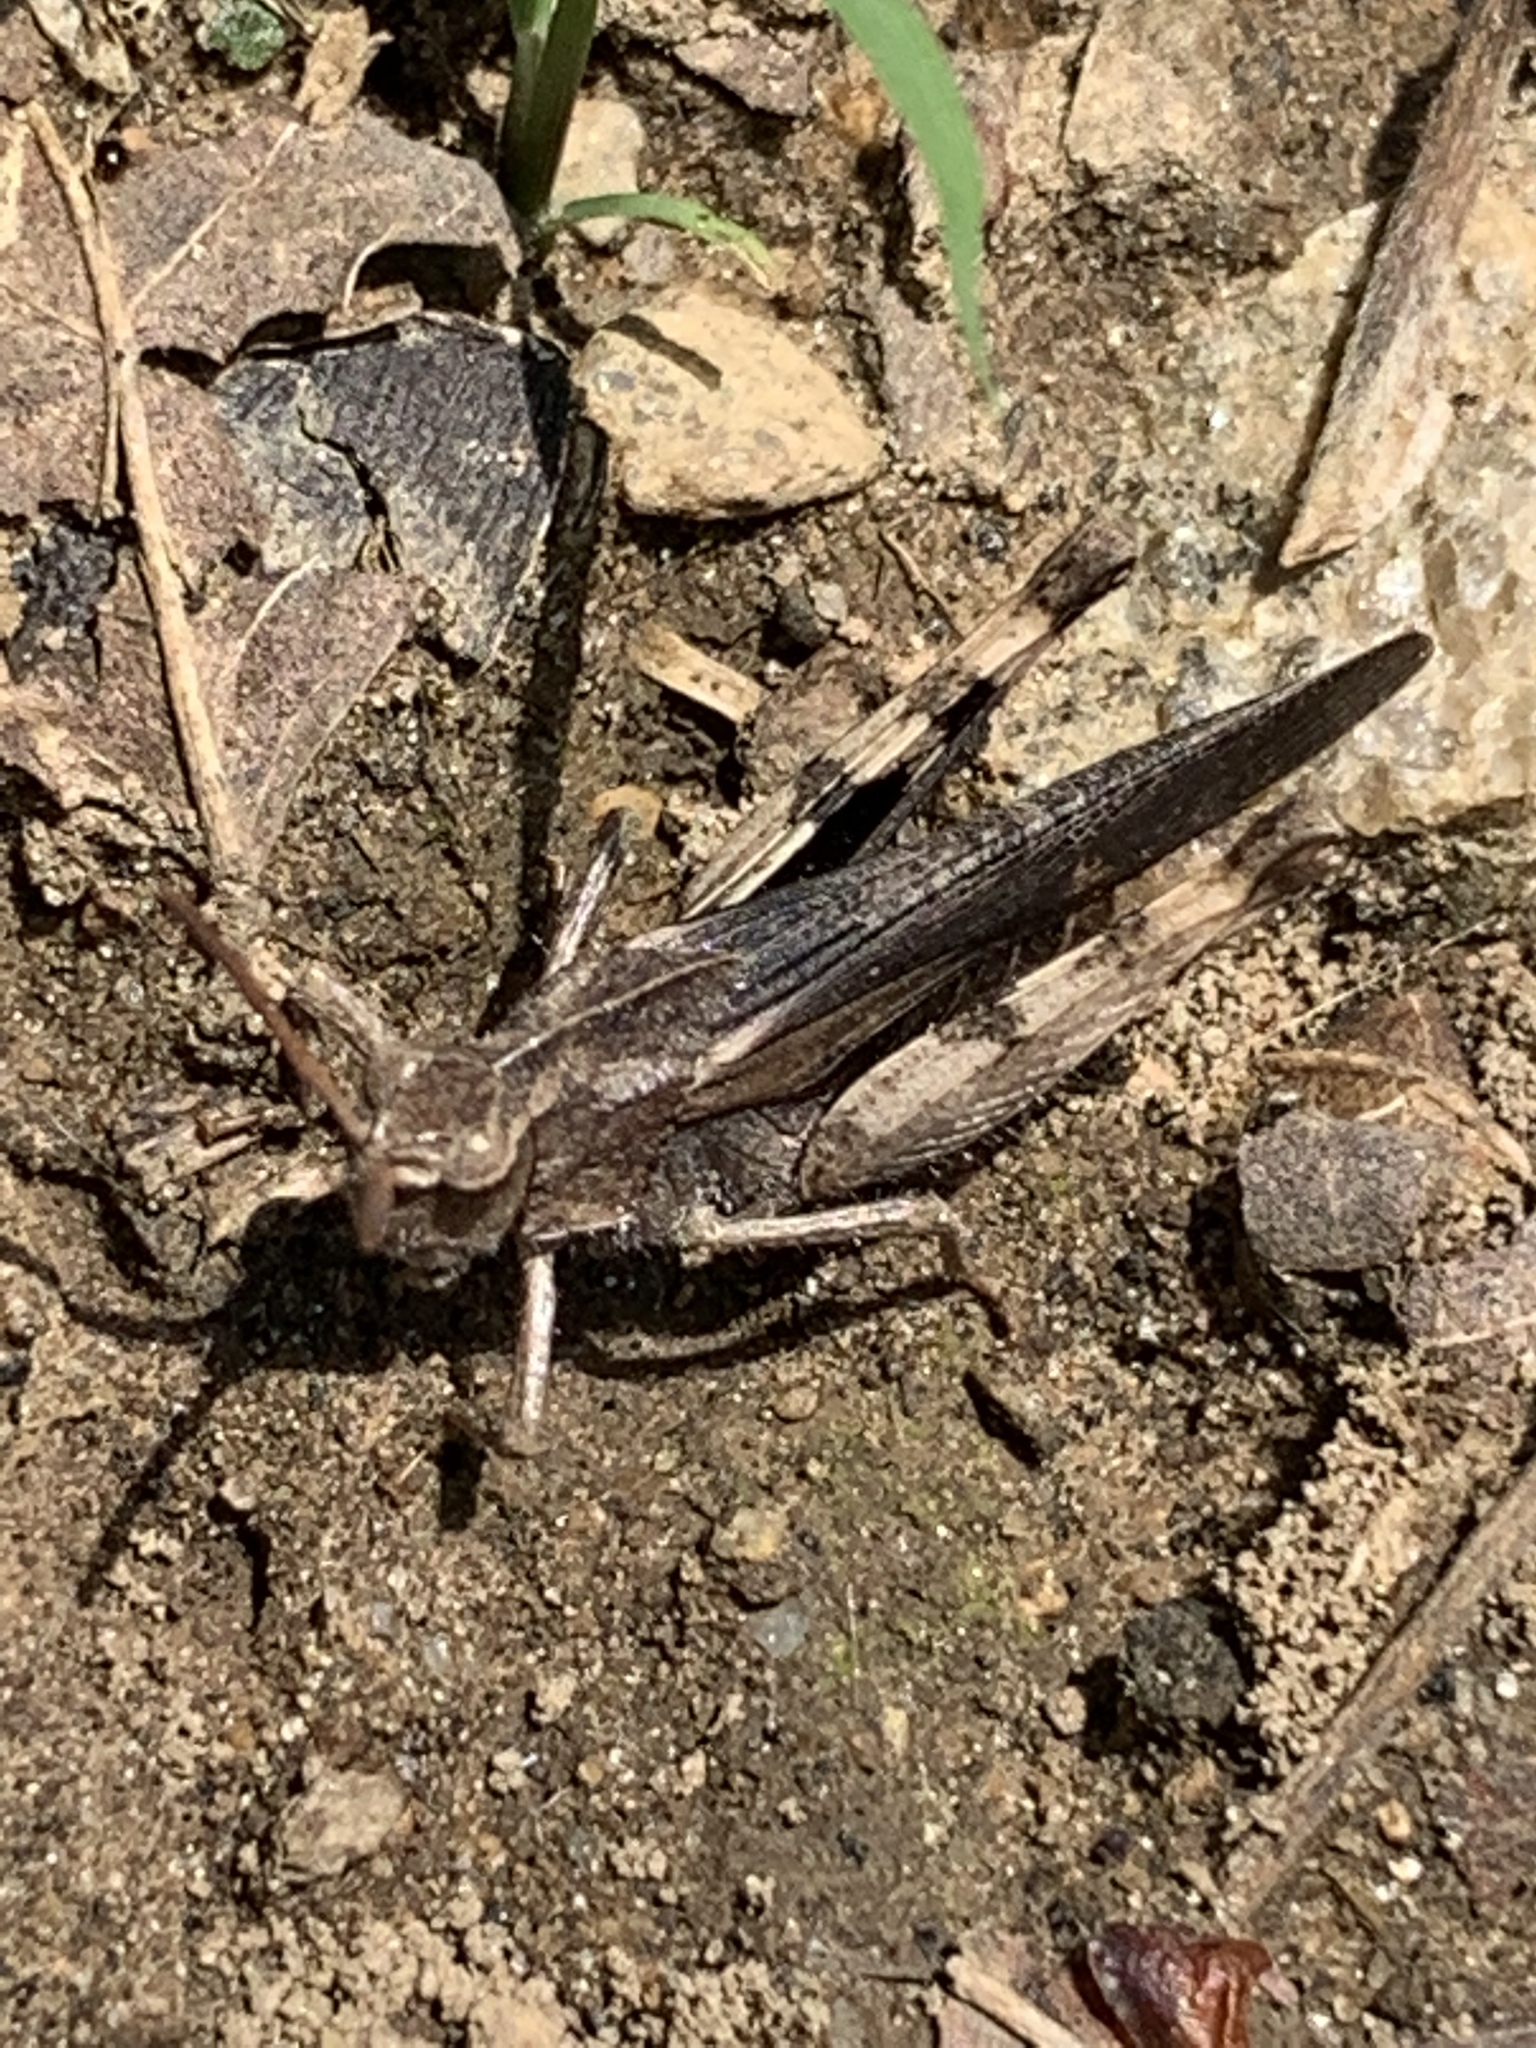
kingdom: Animalia
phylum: Arthropoda
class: Insecta
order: Orthoptera
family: Acrididae
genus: Chortophaga
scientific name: Chortophaga viridifasciata
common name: Green-striped grasshopper
